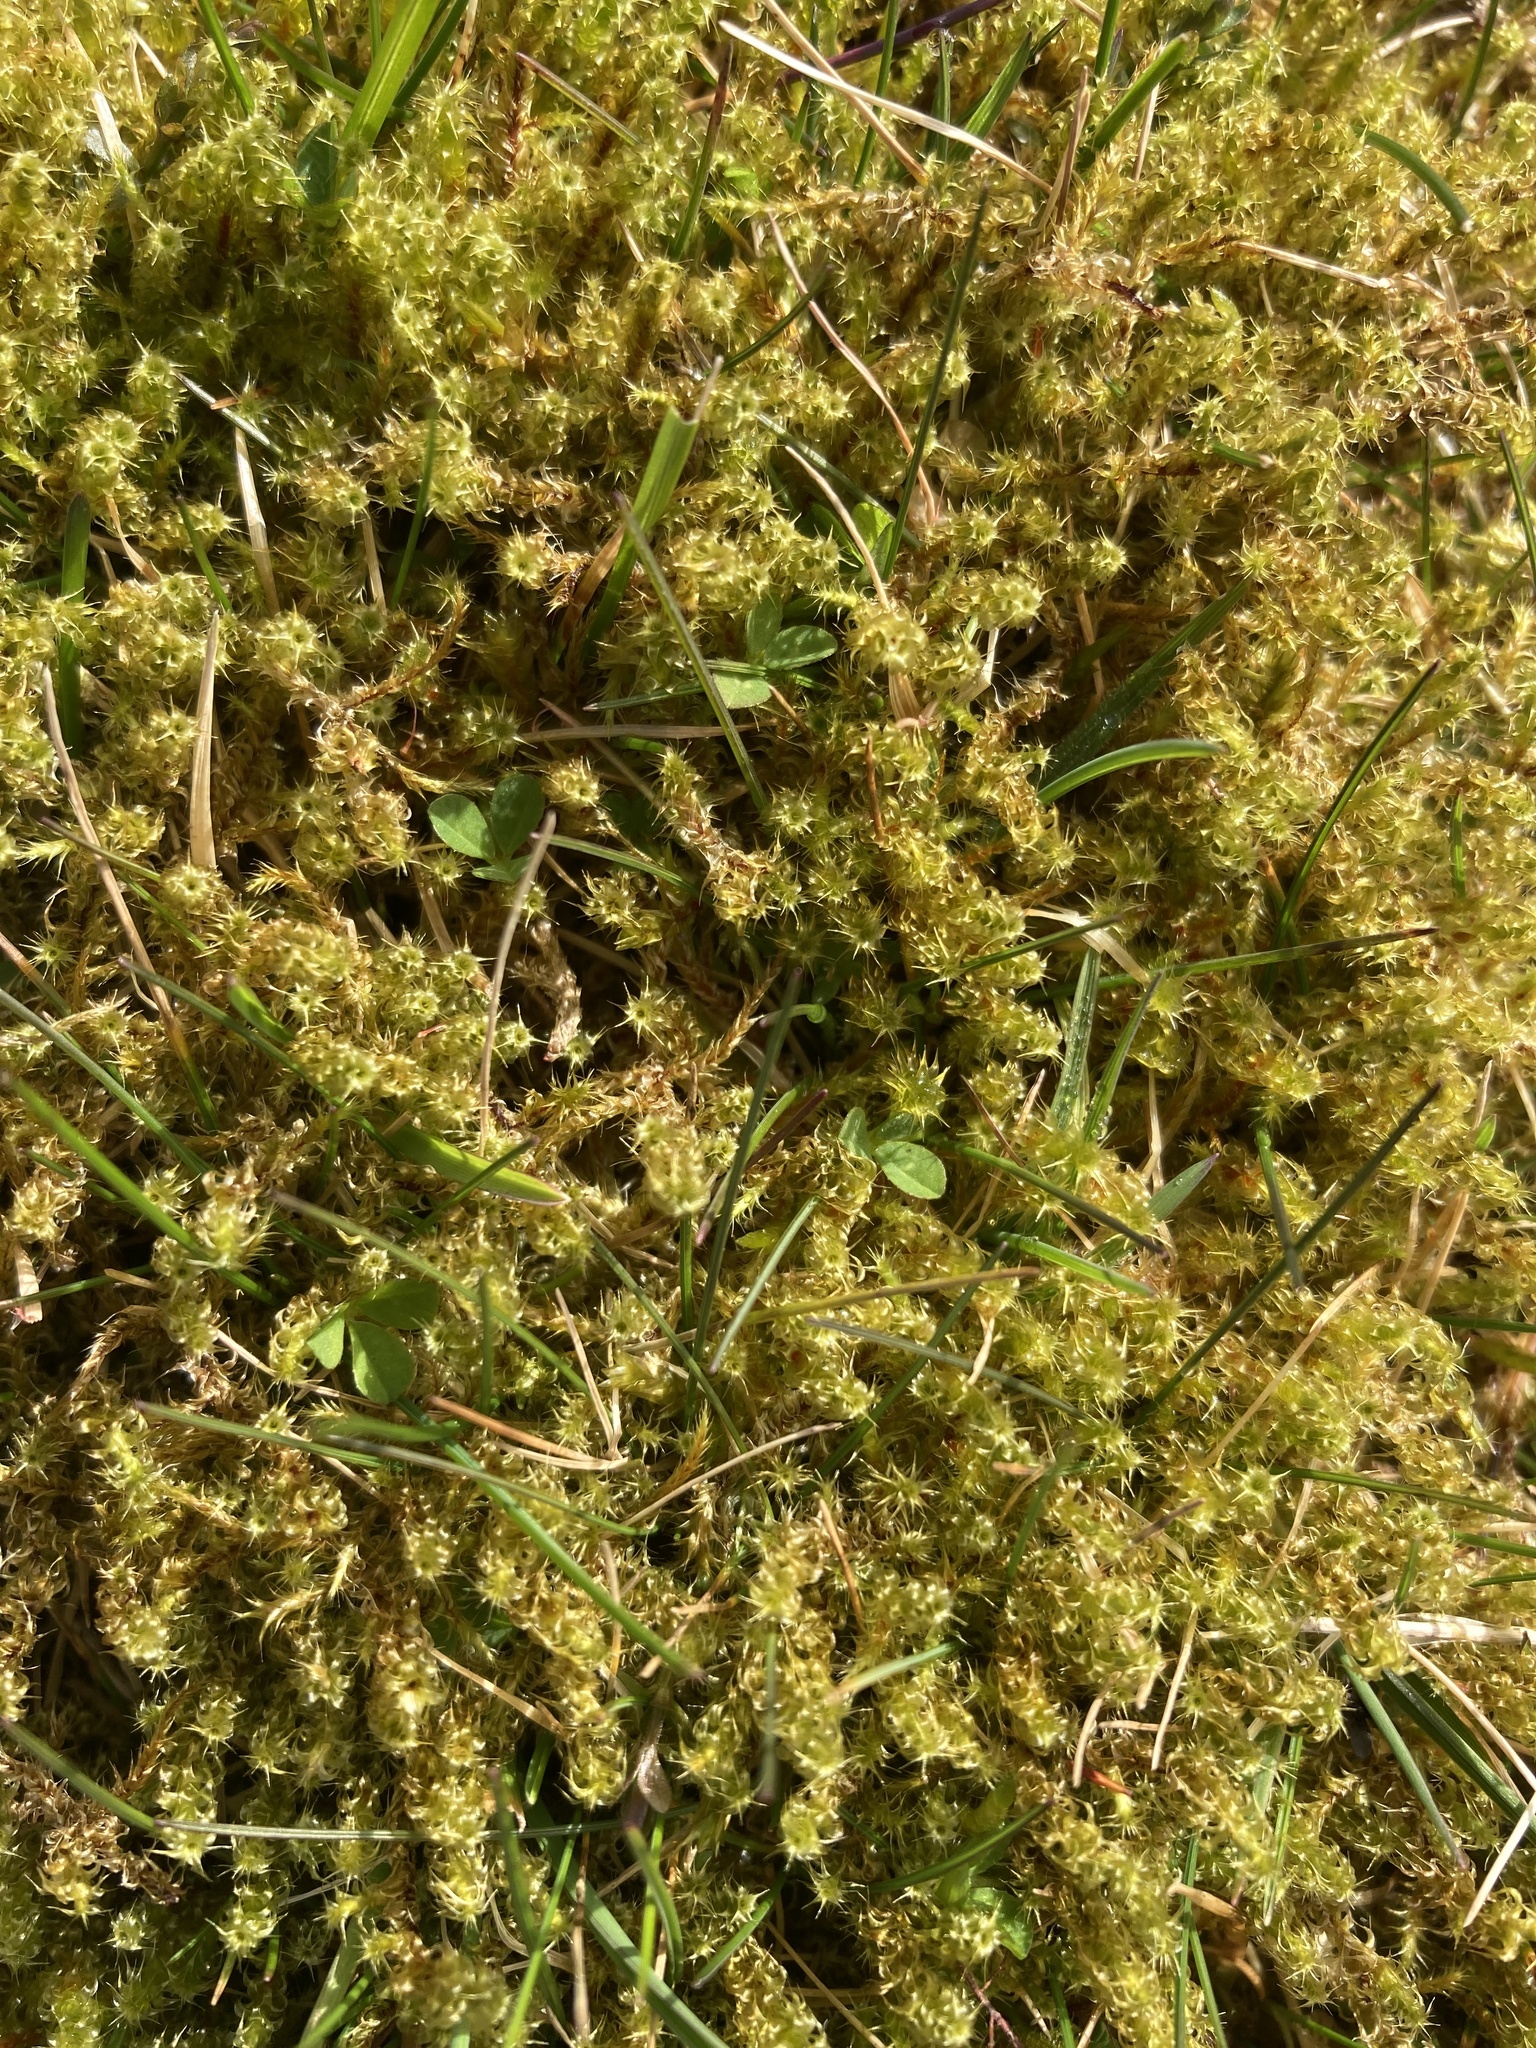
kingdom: Plantae
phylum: Bryophyta
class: Bryopsida
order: Hypnales
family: Hylocomiaceae
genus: Rhytidiadelphus
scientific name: Rhytidiadelphus squarrosus
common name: Springy turf-moss
